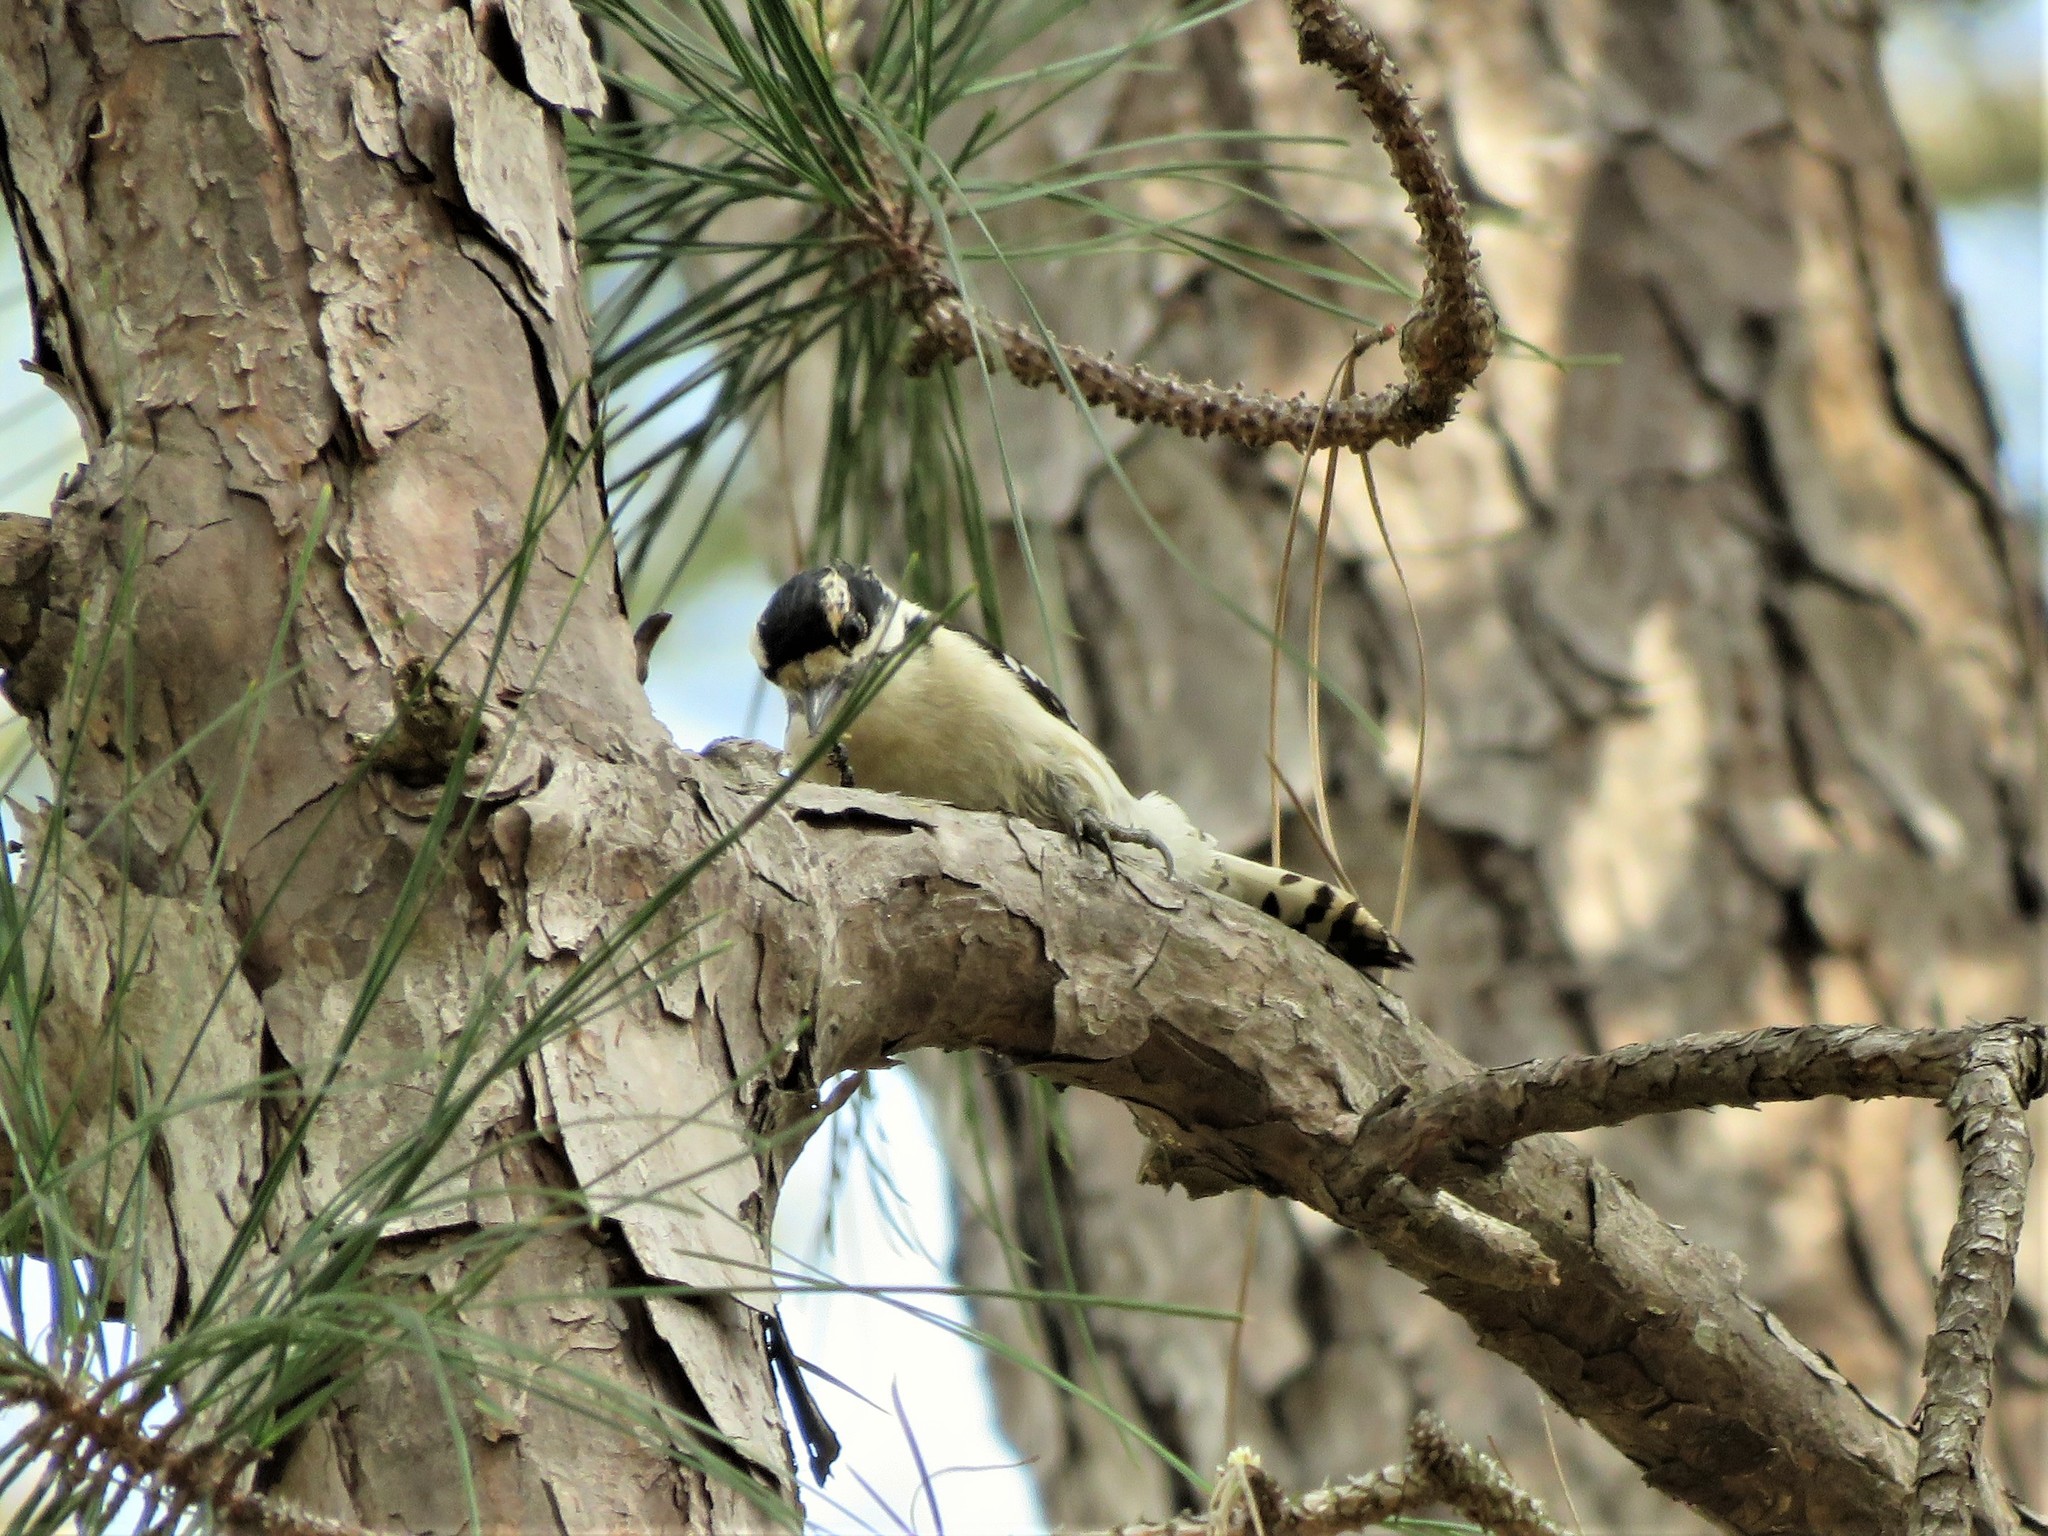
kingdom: Animalia
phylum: Chordata
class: Aves
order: Piciformes
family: Picidae
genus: Dryobates
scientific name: Dryobates pubescens
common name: Downy woodpecker
